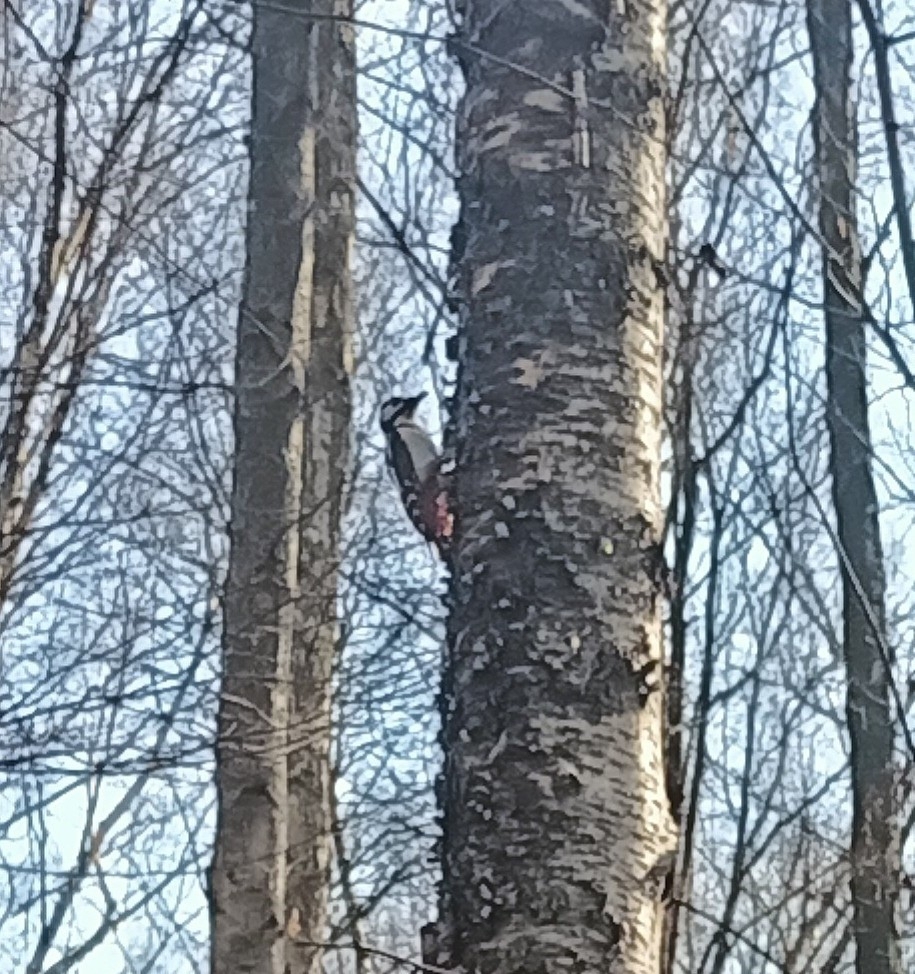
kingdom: Animalia
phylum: Chordata
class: Aves
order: Piciformes
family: Picidae
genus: Dendrocopos
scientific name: Dendrocopos major
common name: Great spotted woodpecker
